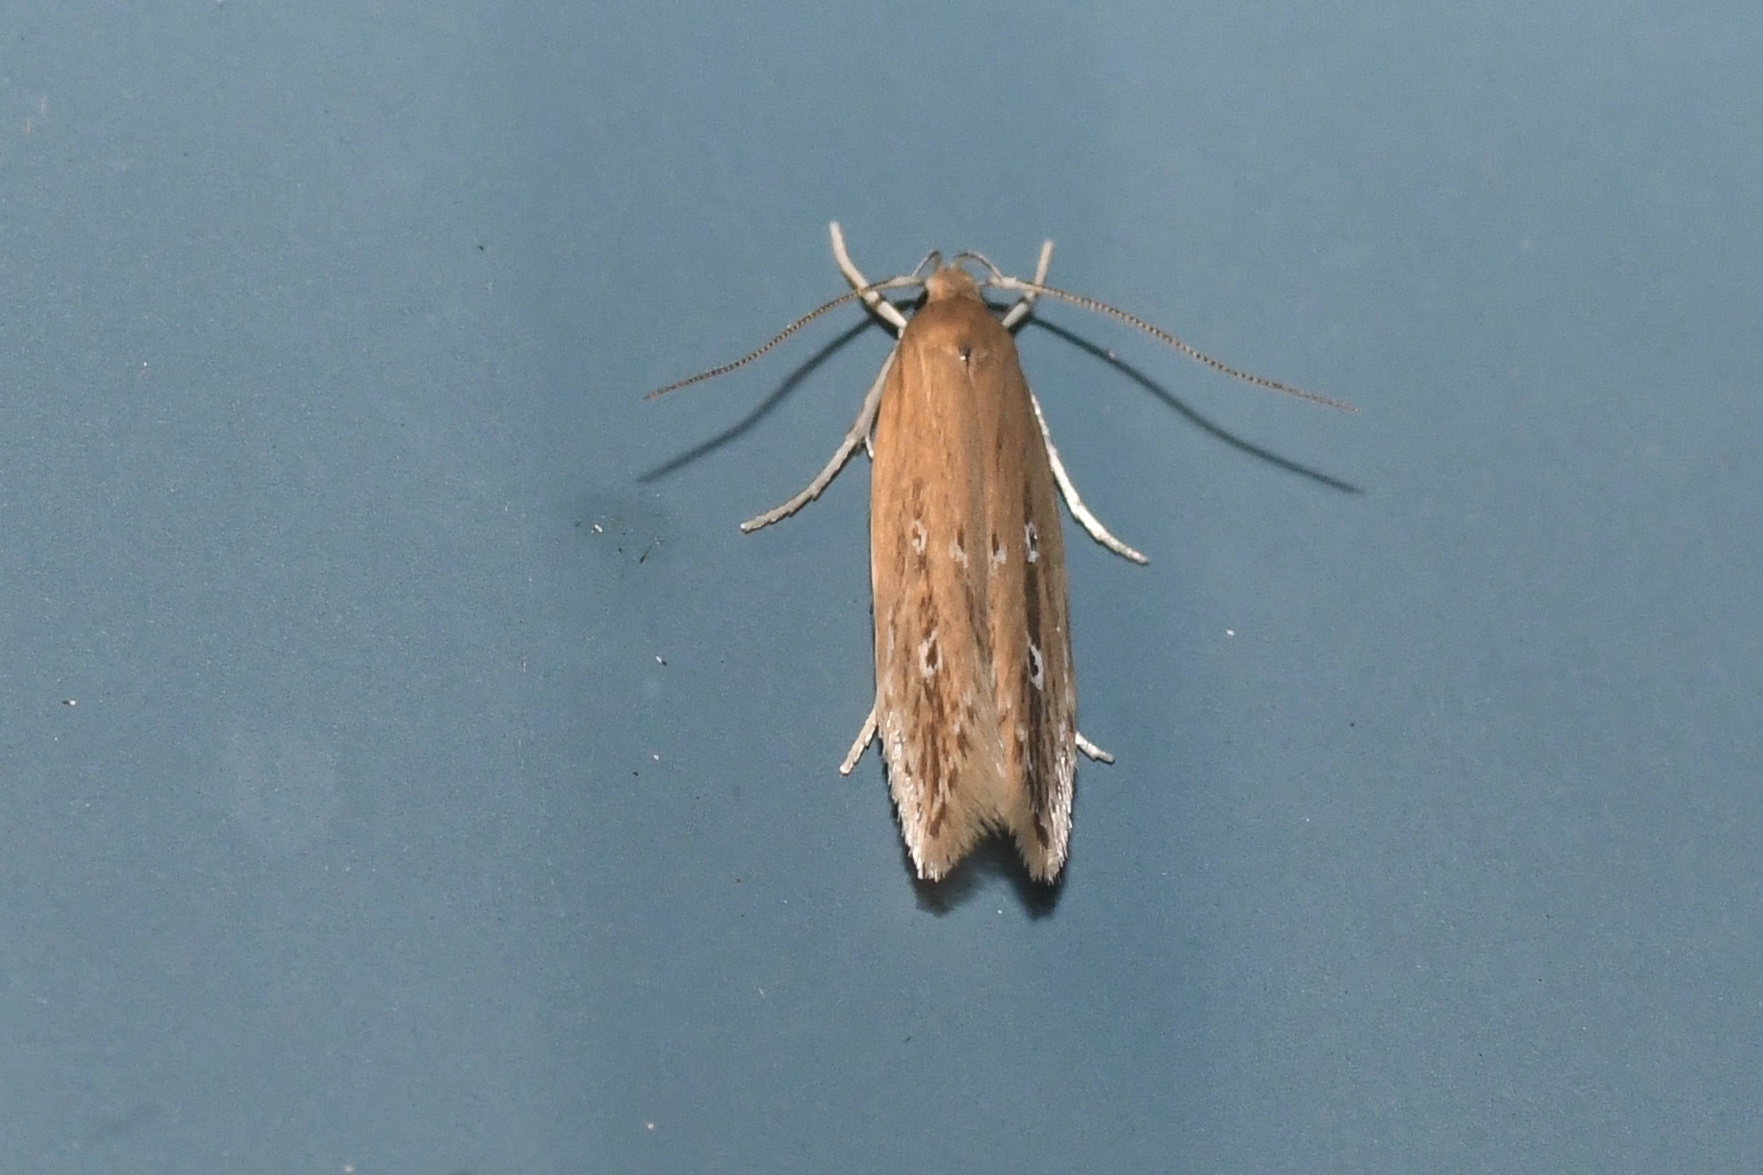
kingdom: Animalia
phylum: Arthropoda
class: Insecta
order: Lepidoptera
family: Cosmopterigidae
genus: Limnaecia
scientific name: Limnaecia phragmitella
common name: Bulrush cosmet
